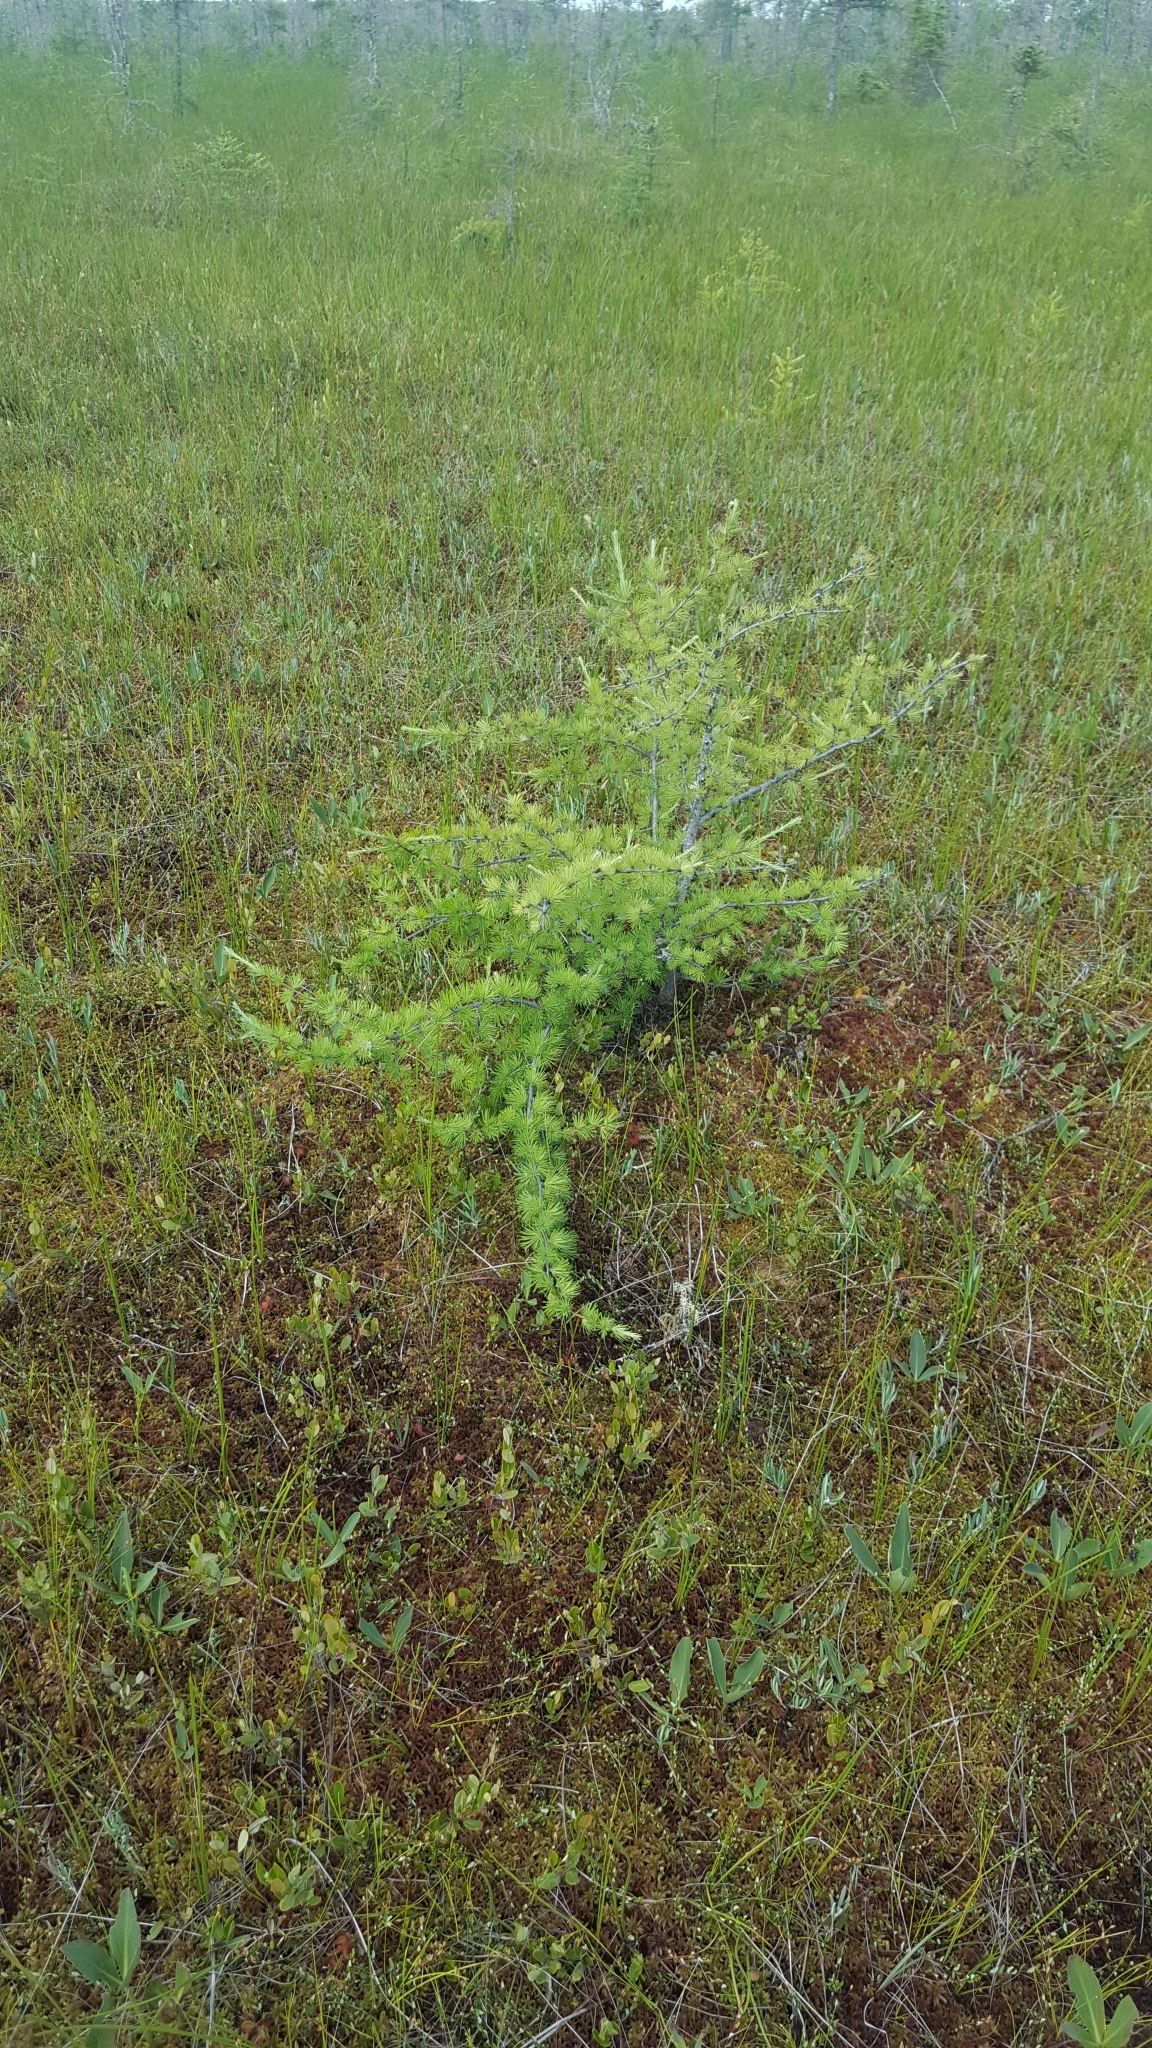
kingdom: Plantae
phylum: Tracheophyta
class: Pinopsida
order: Pinales
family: Pinaceae
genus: Larix
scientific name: Larix laricina
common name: American larch
